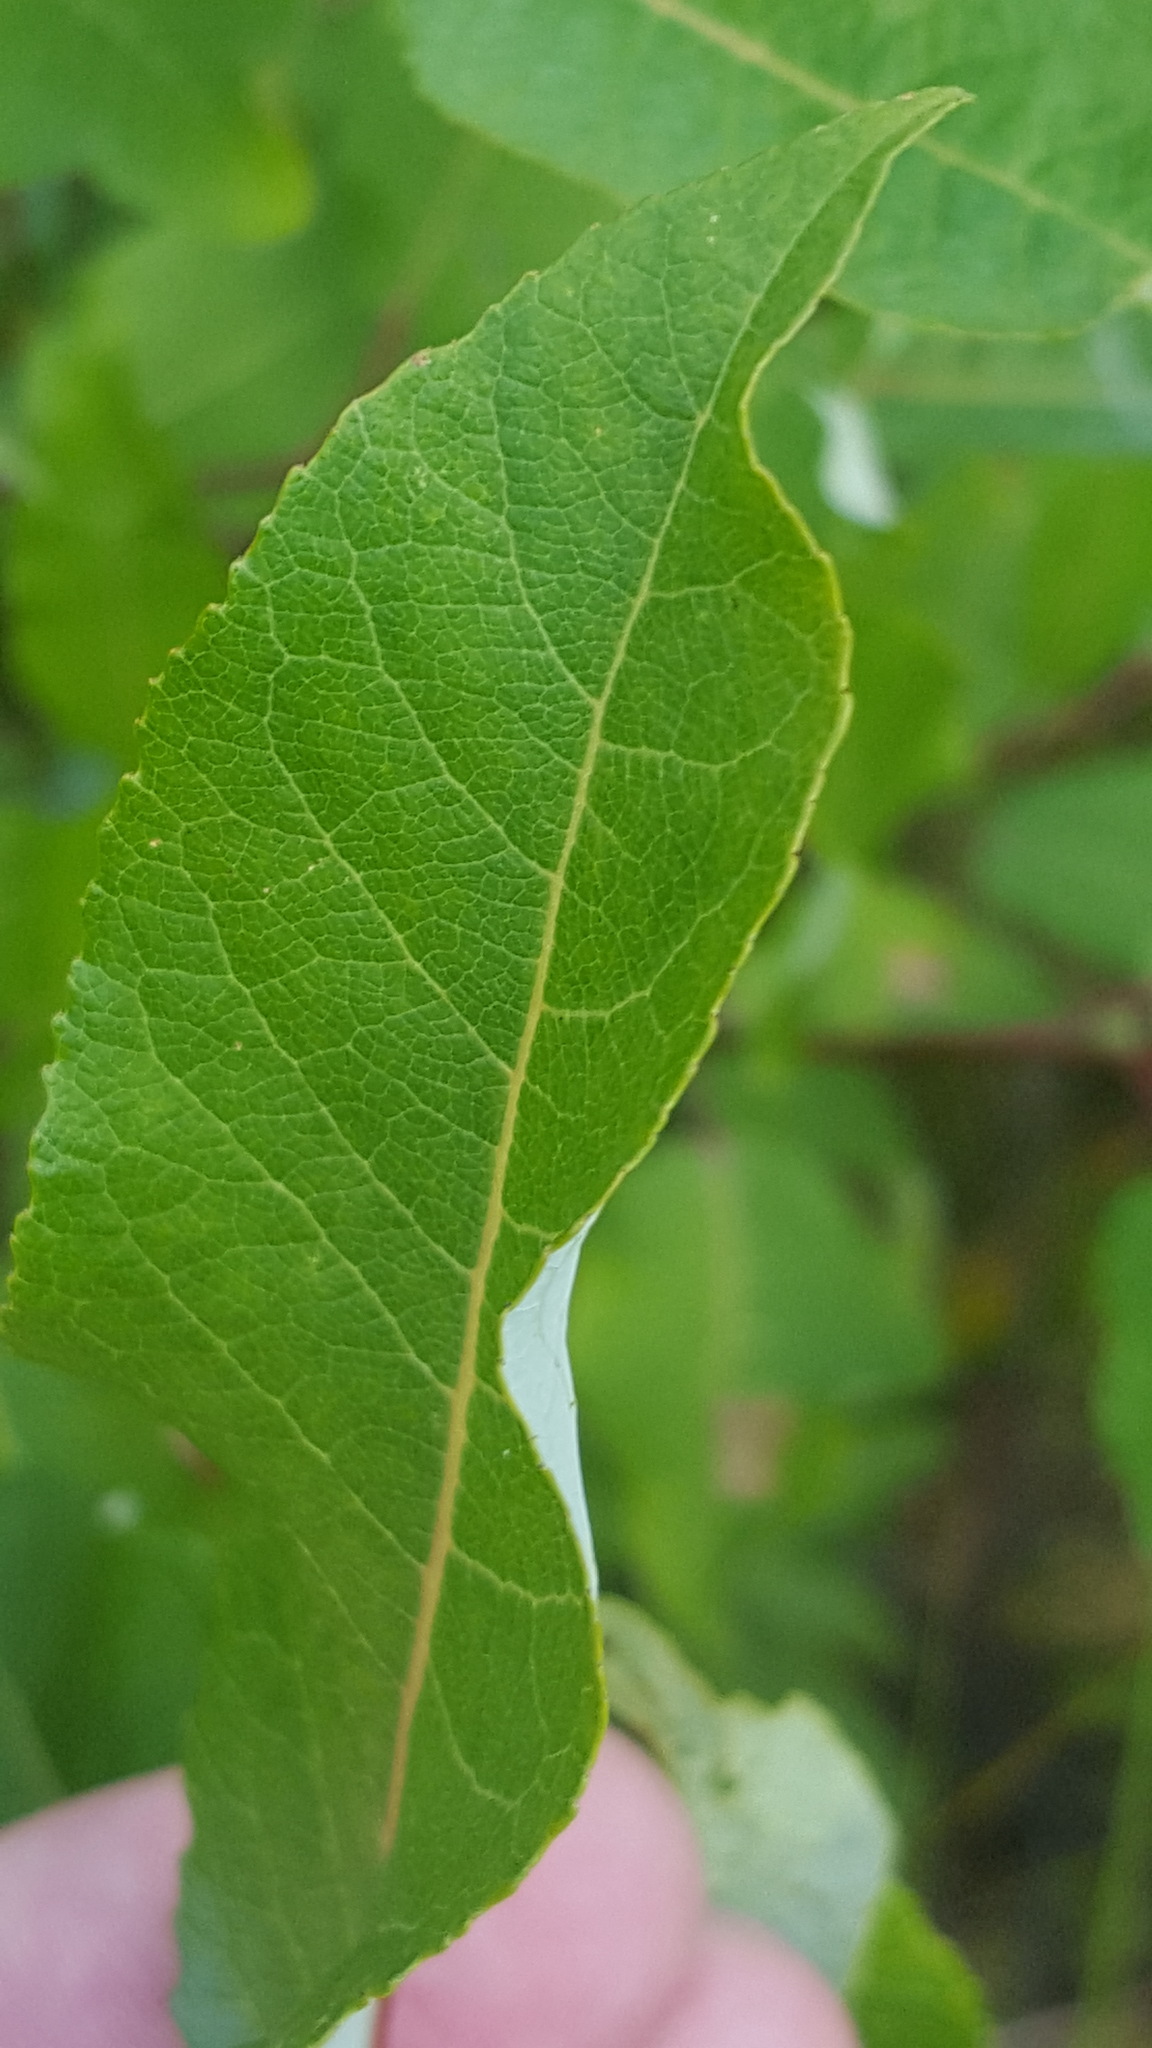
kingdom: Plantae
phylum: Tracheophyta
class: Magnoliopsida
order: Malpighiales
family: Salicaceae
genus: Salix
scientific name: Salix pyrifolia
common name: Balsam willow
